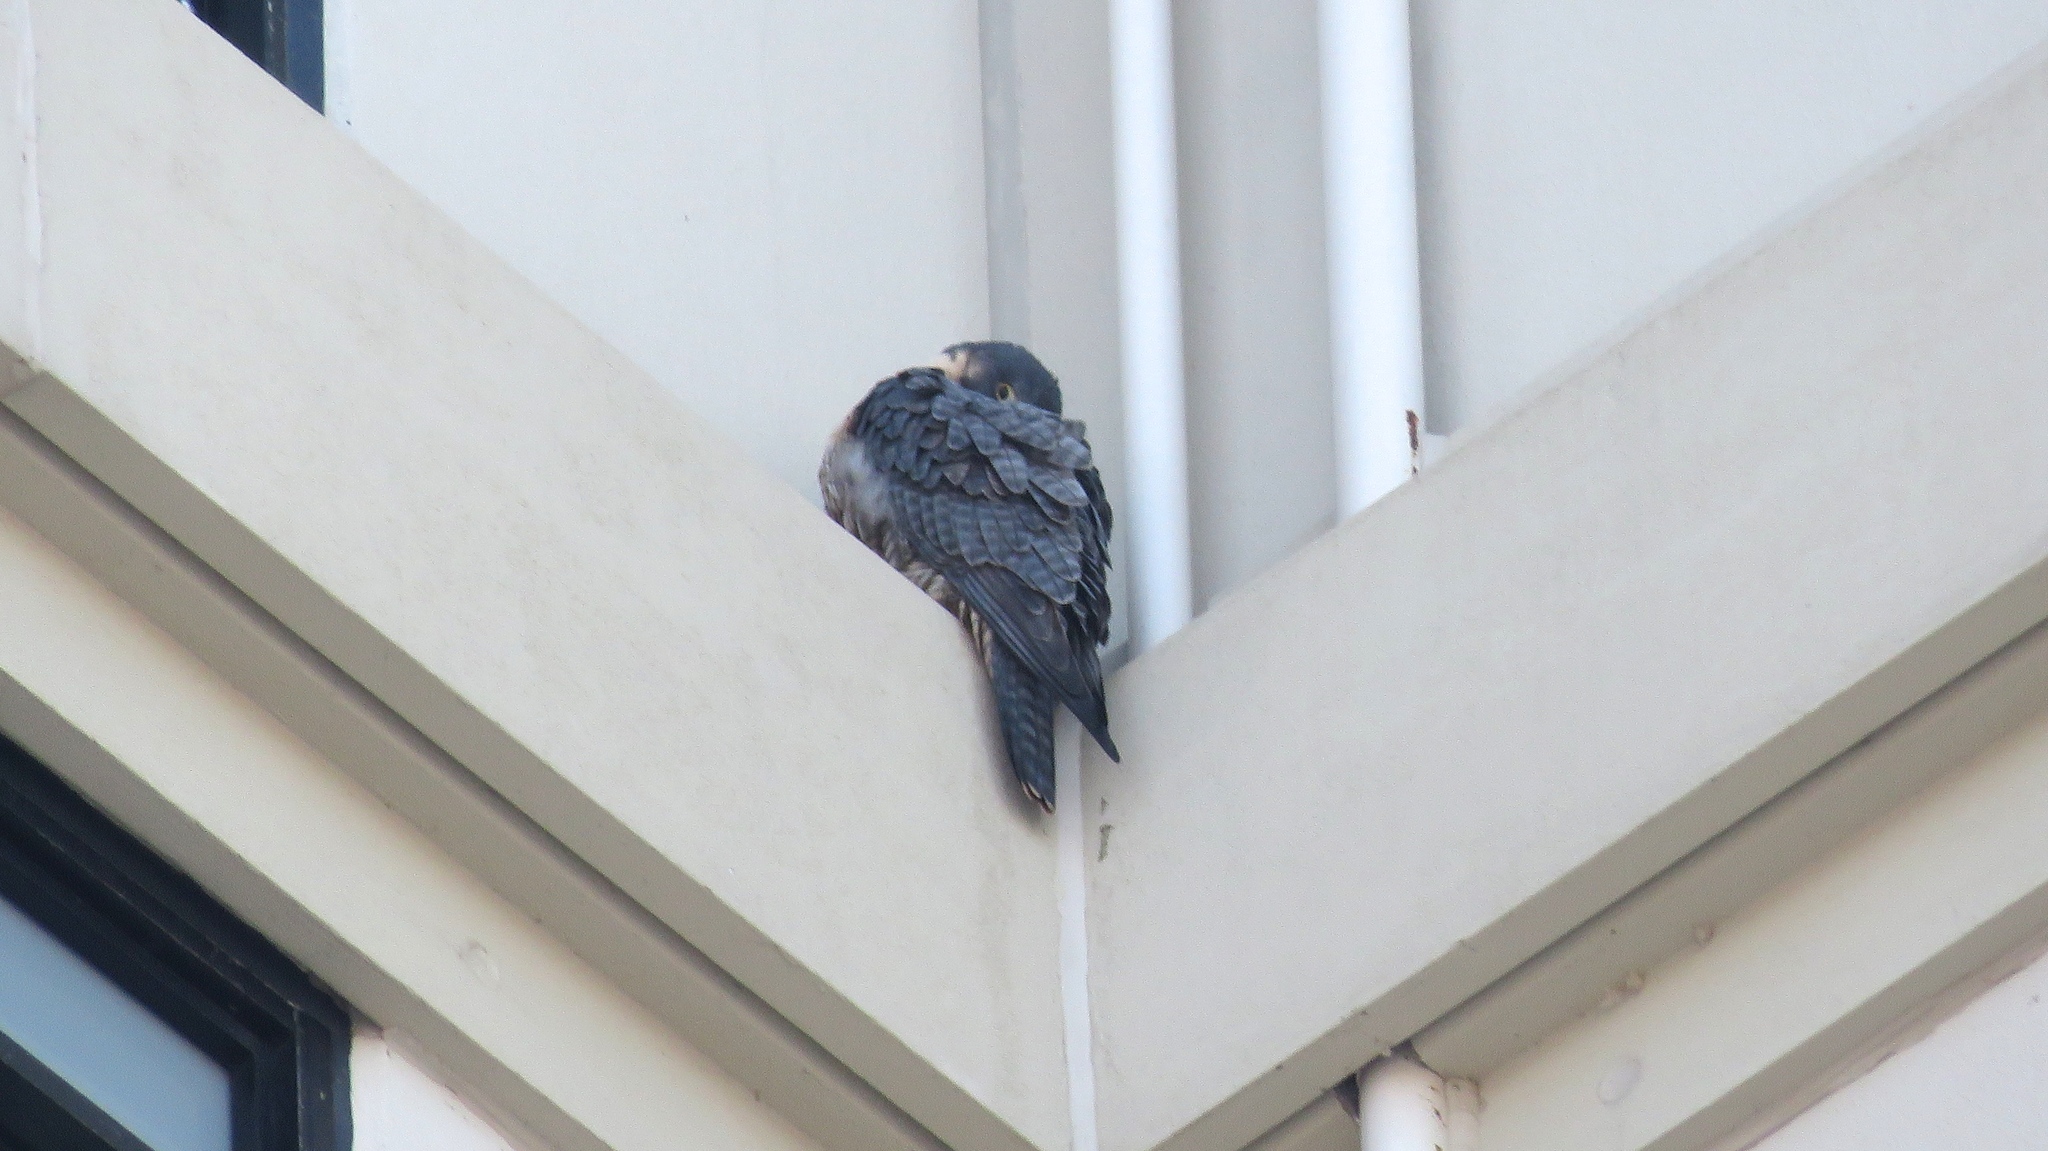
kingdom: Animalia
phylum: Chordata
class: Aves
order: Falconiformes
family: Falconidae
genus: Falco
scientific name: Falco peregrinus
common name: Peregrine falcon
